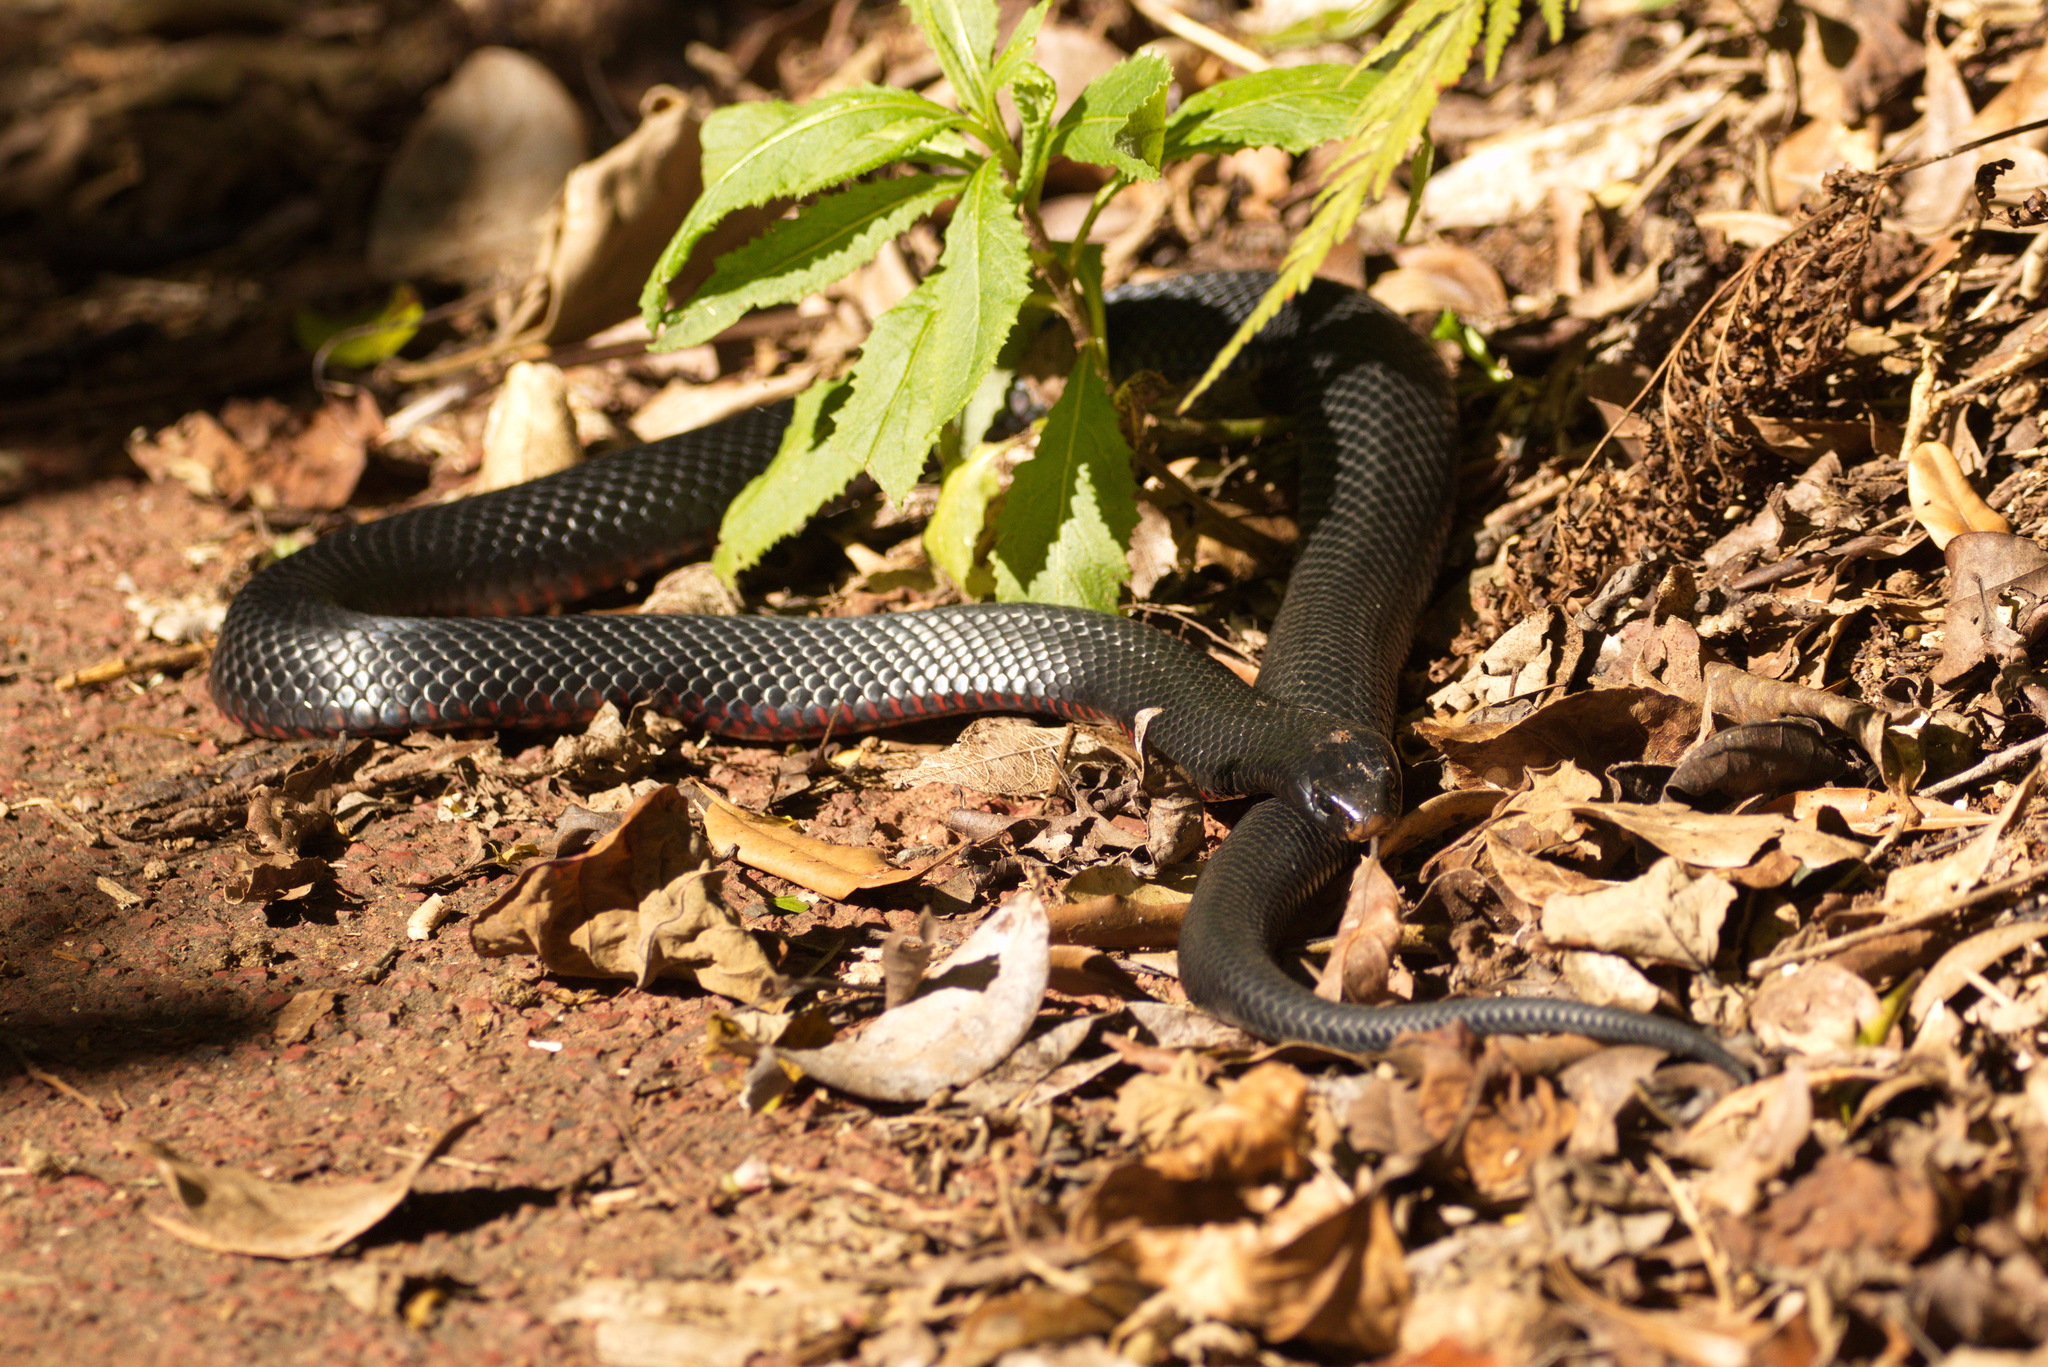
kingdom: Animalia
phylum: Chordata
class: Squamata
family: Elapidae
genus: Pseudechis
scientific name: Pseudechis porphyriacus
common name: Australian black snake
